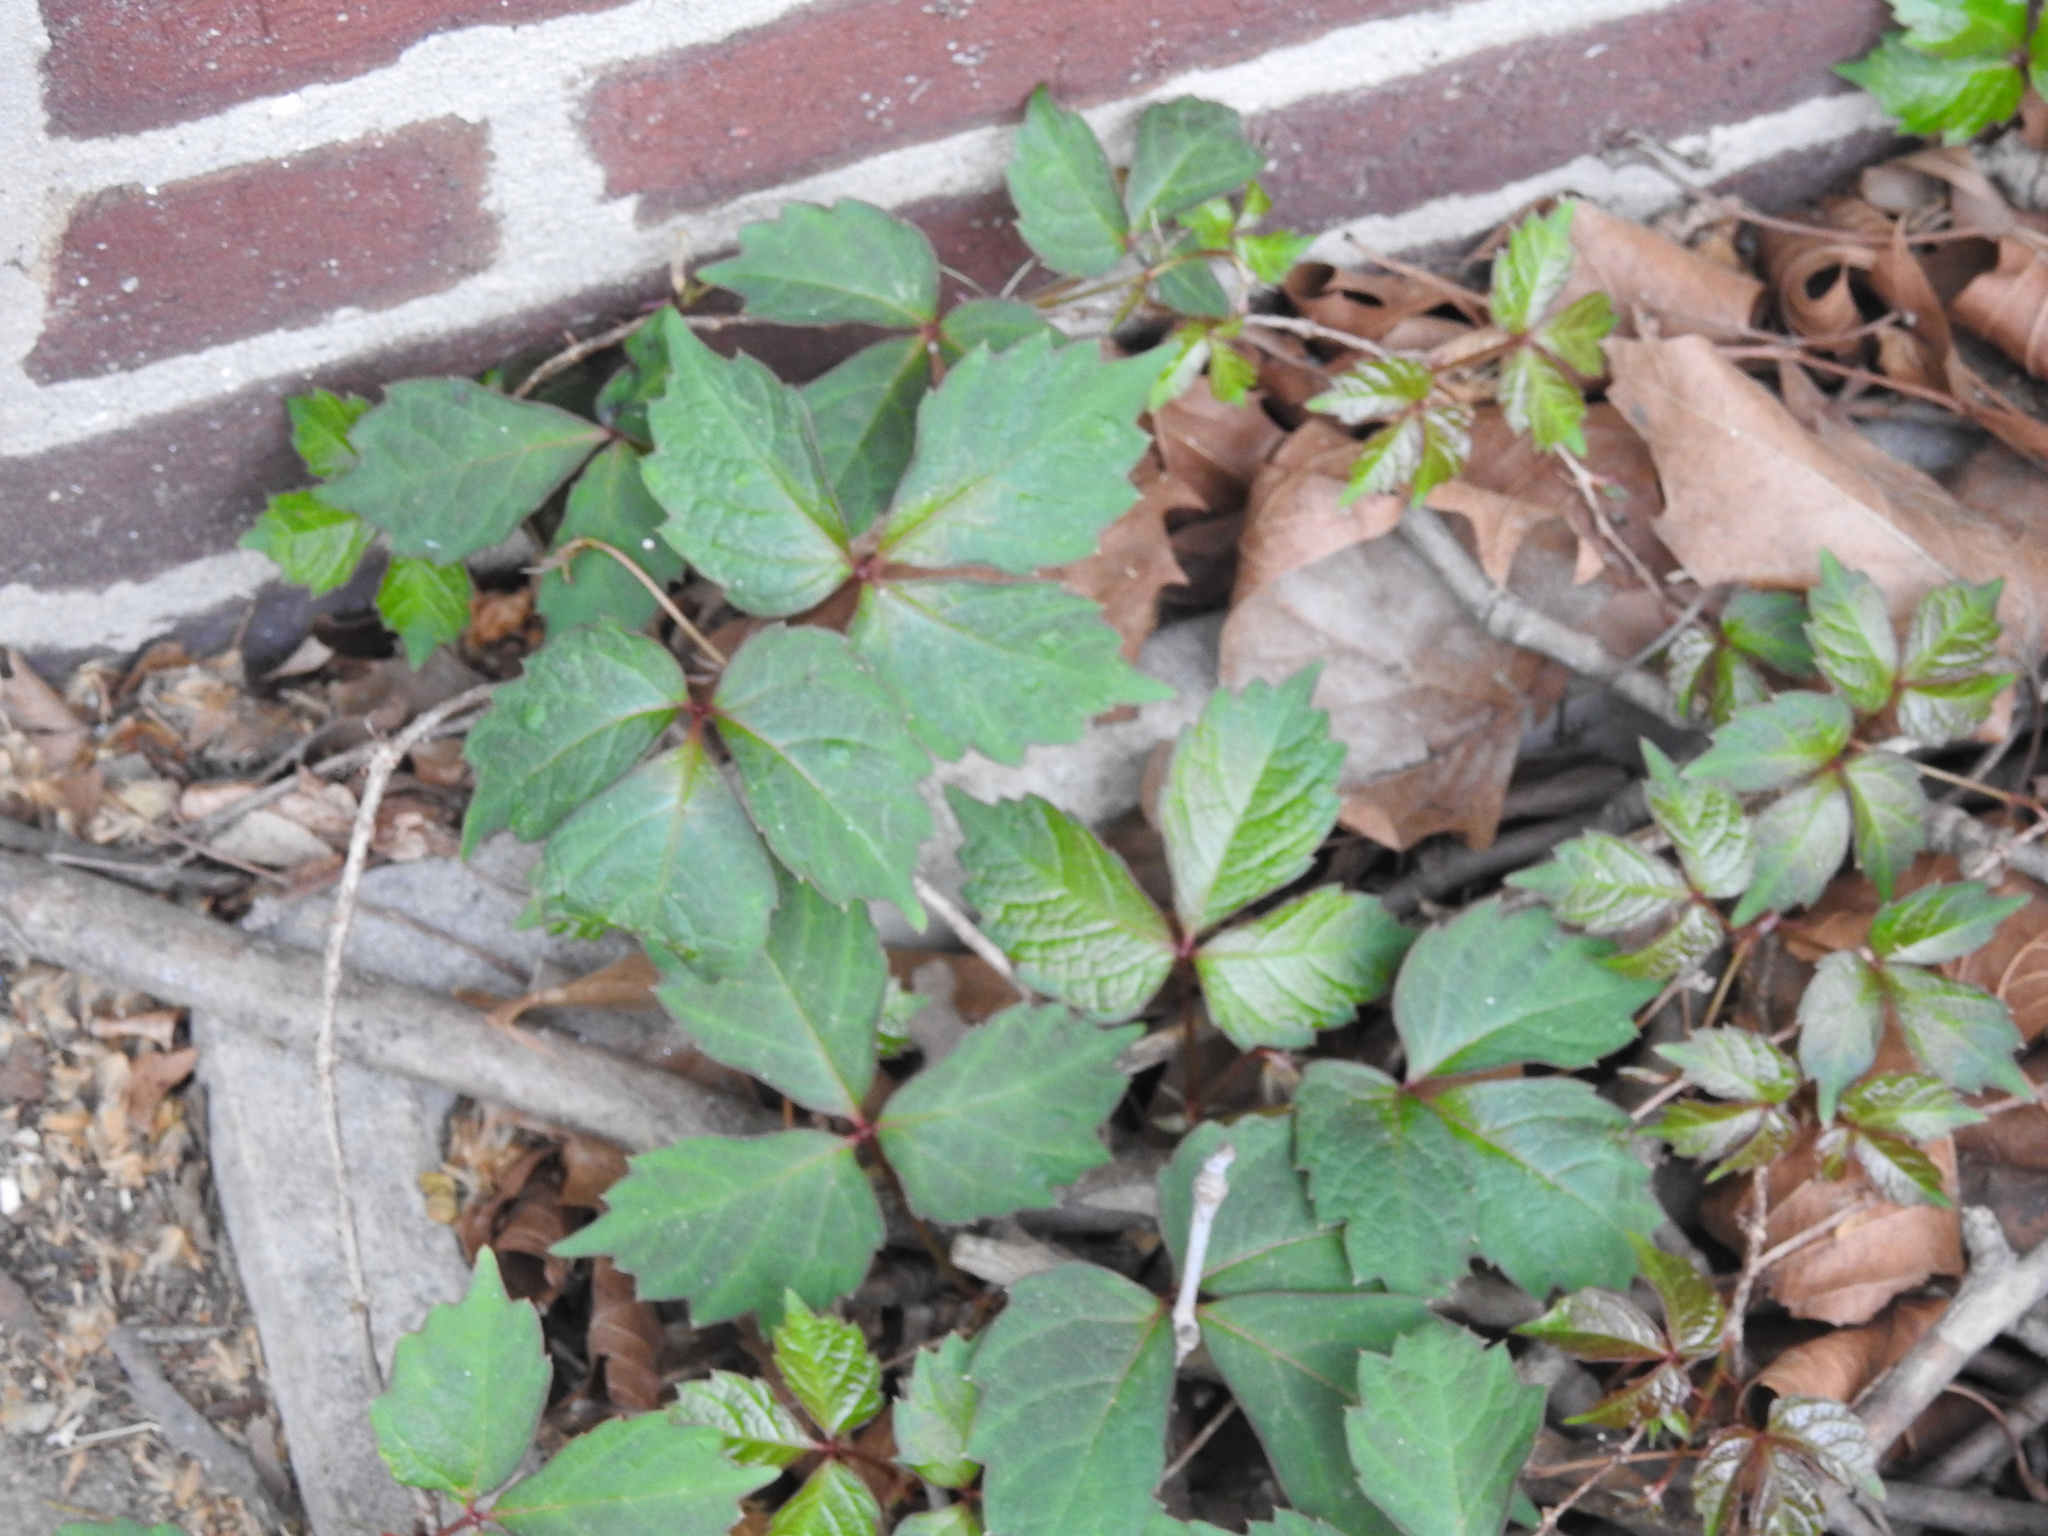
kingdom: Plantae
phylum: Tracheophyta
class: Magnoliopsida
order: Vitales
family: Vitaceae
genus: Parthenocissus
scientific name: Parthenocissus tricuspidata
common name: Boston ivy
